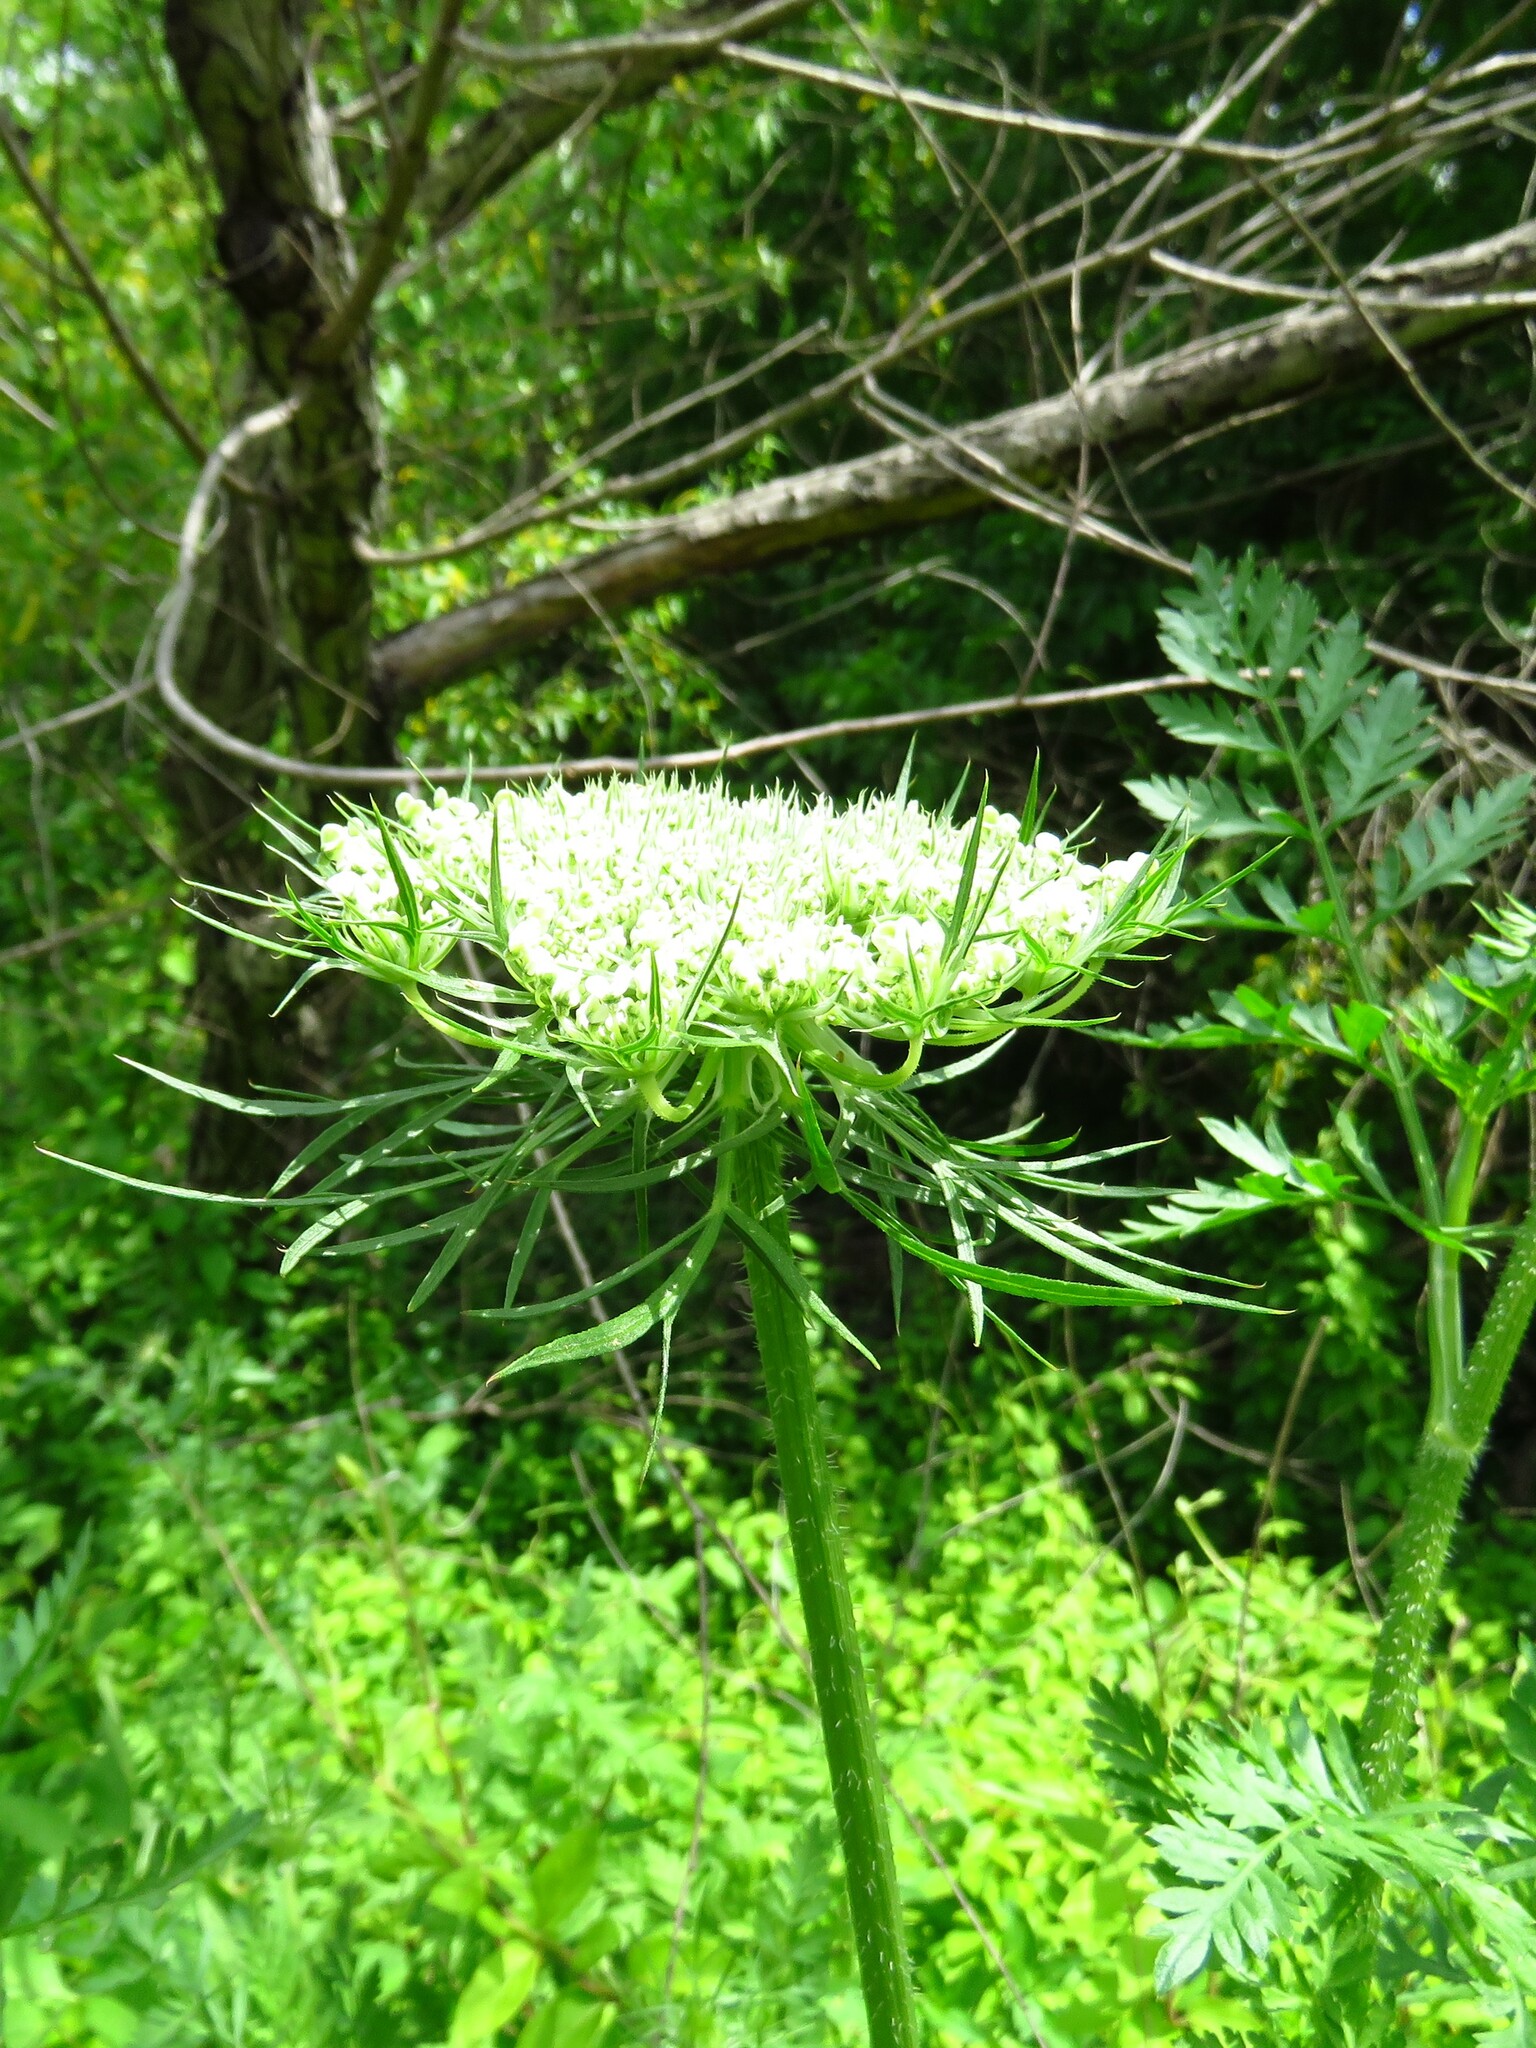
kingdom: Plantae
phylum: Tracheophyta
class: Magnoliopsida
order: Apiales
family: Apiaceae
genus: Daucus
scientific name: Daucus carota
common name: Wild carrot
